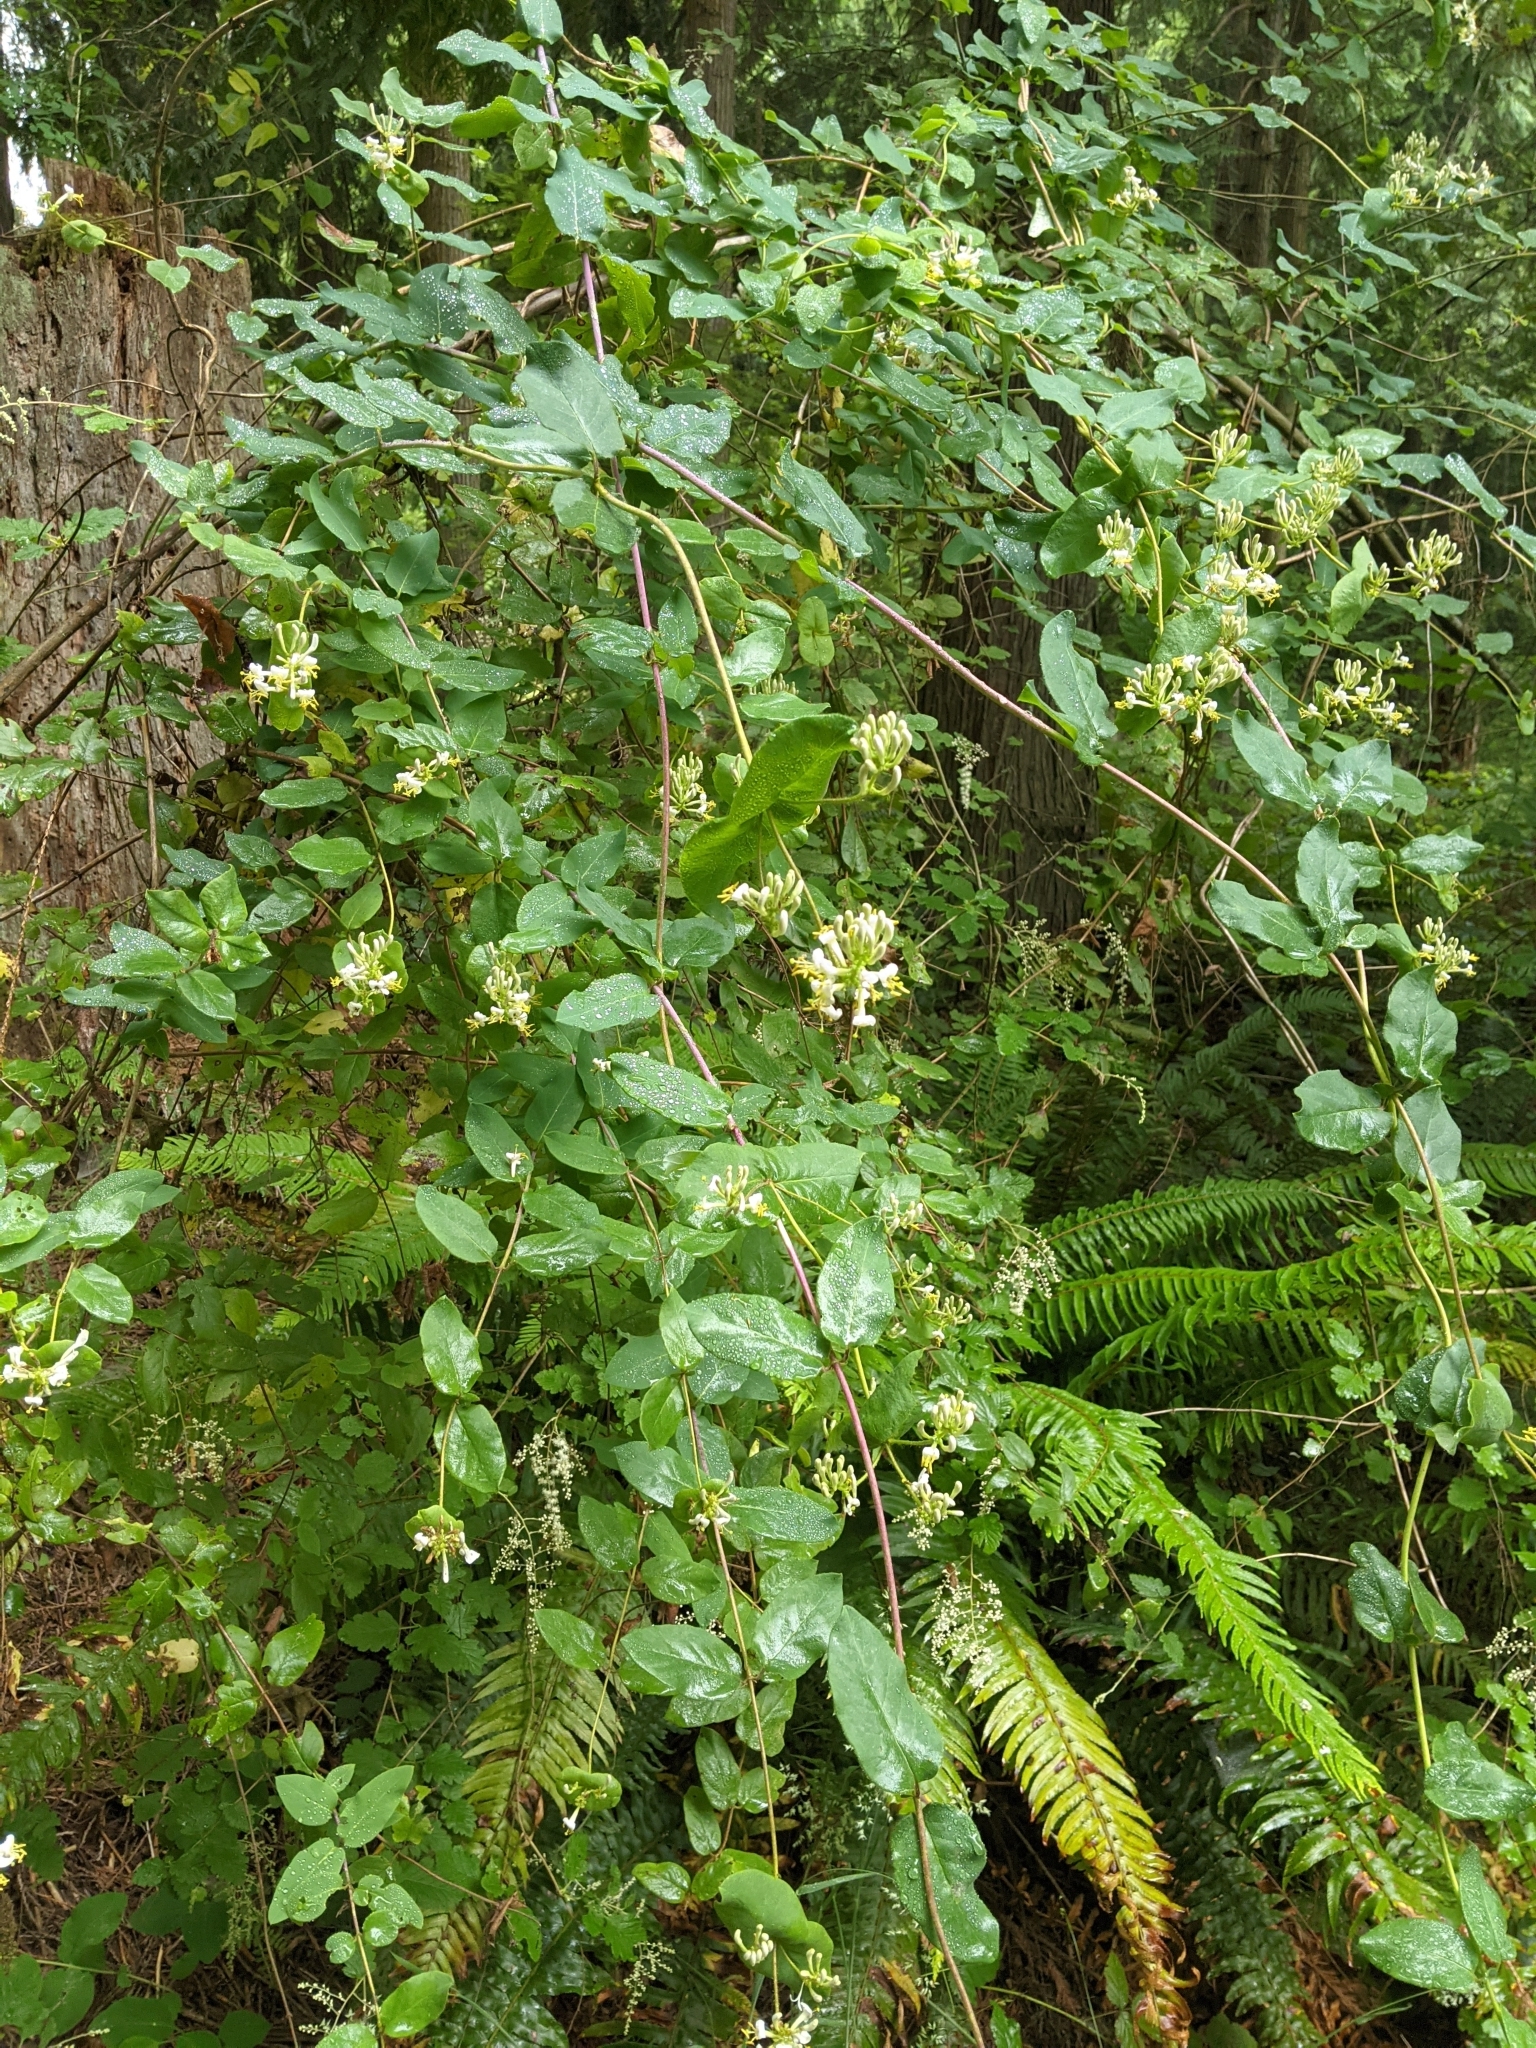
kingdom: Plantae
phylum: Tracheophyta
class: Magnoliopsida
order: Dipsacales
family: Caprifoliaceae
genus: Lonicera
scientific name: Lonicera hispidula
